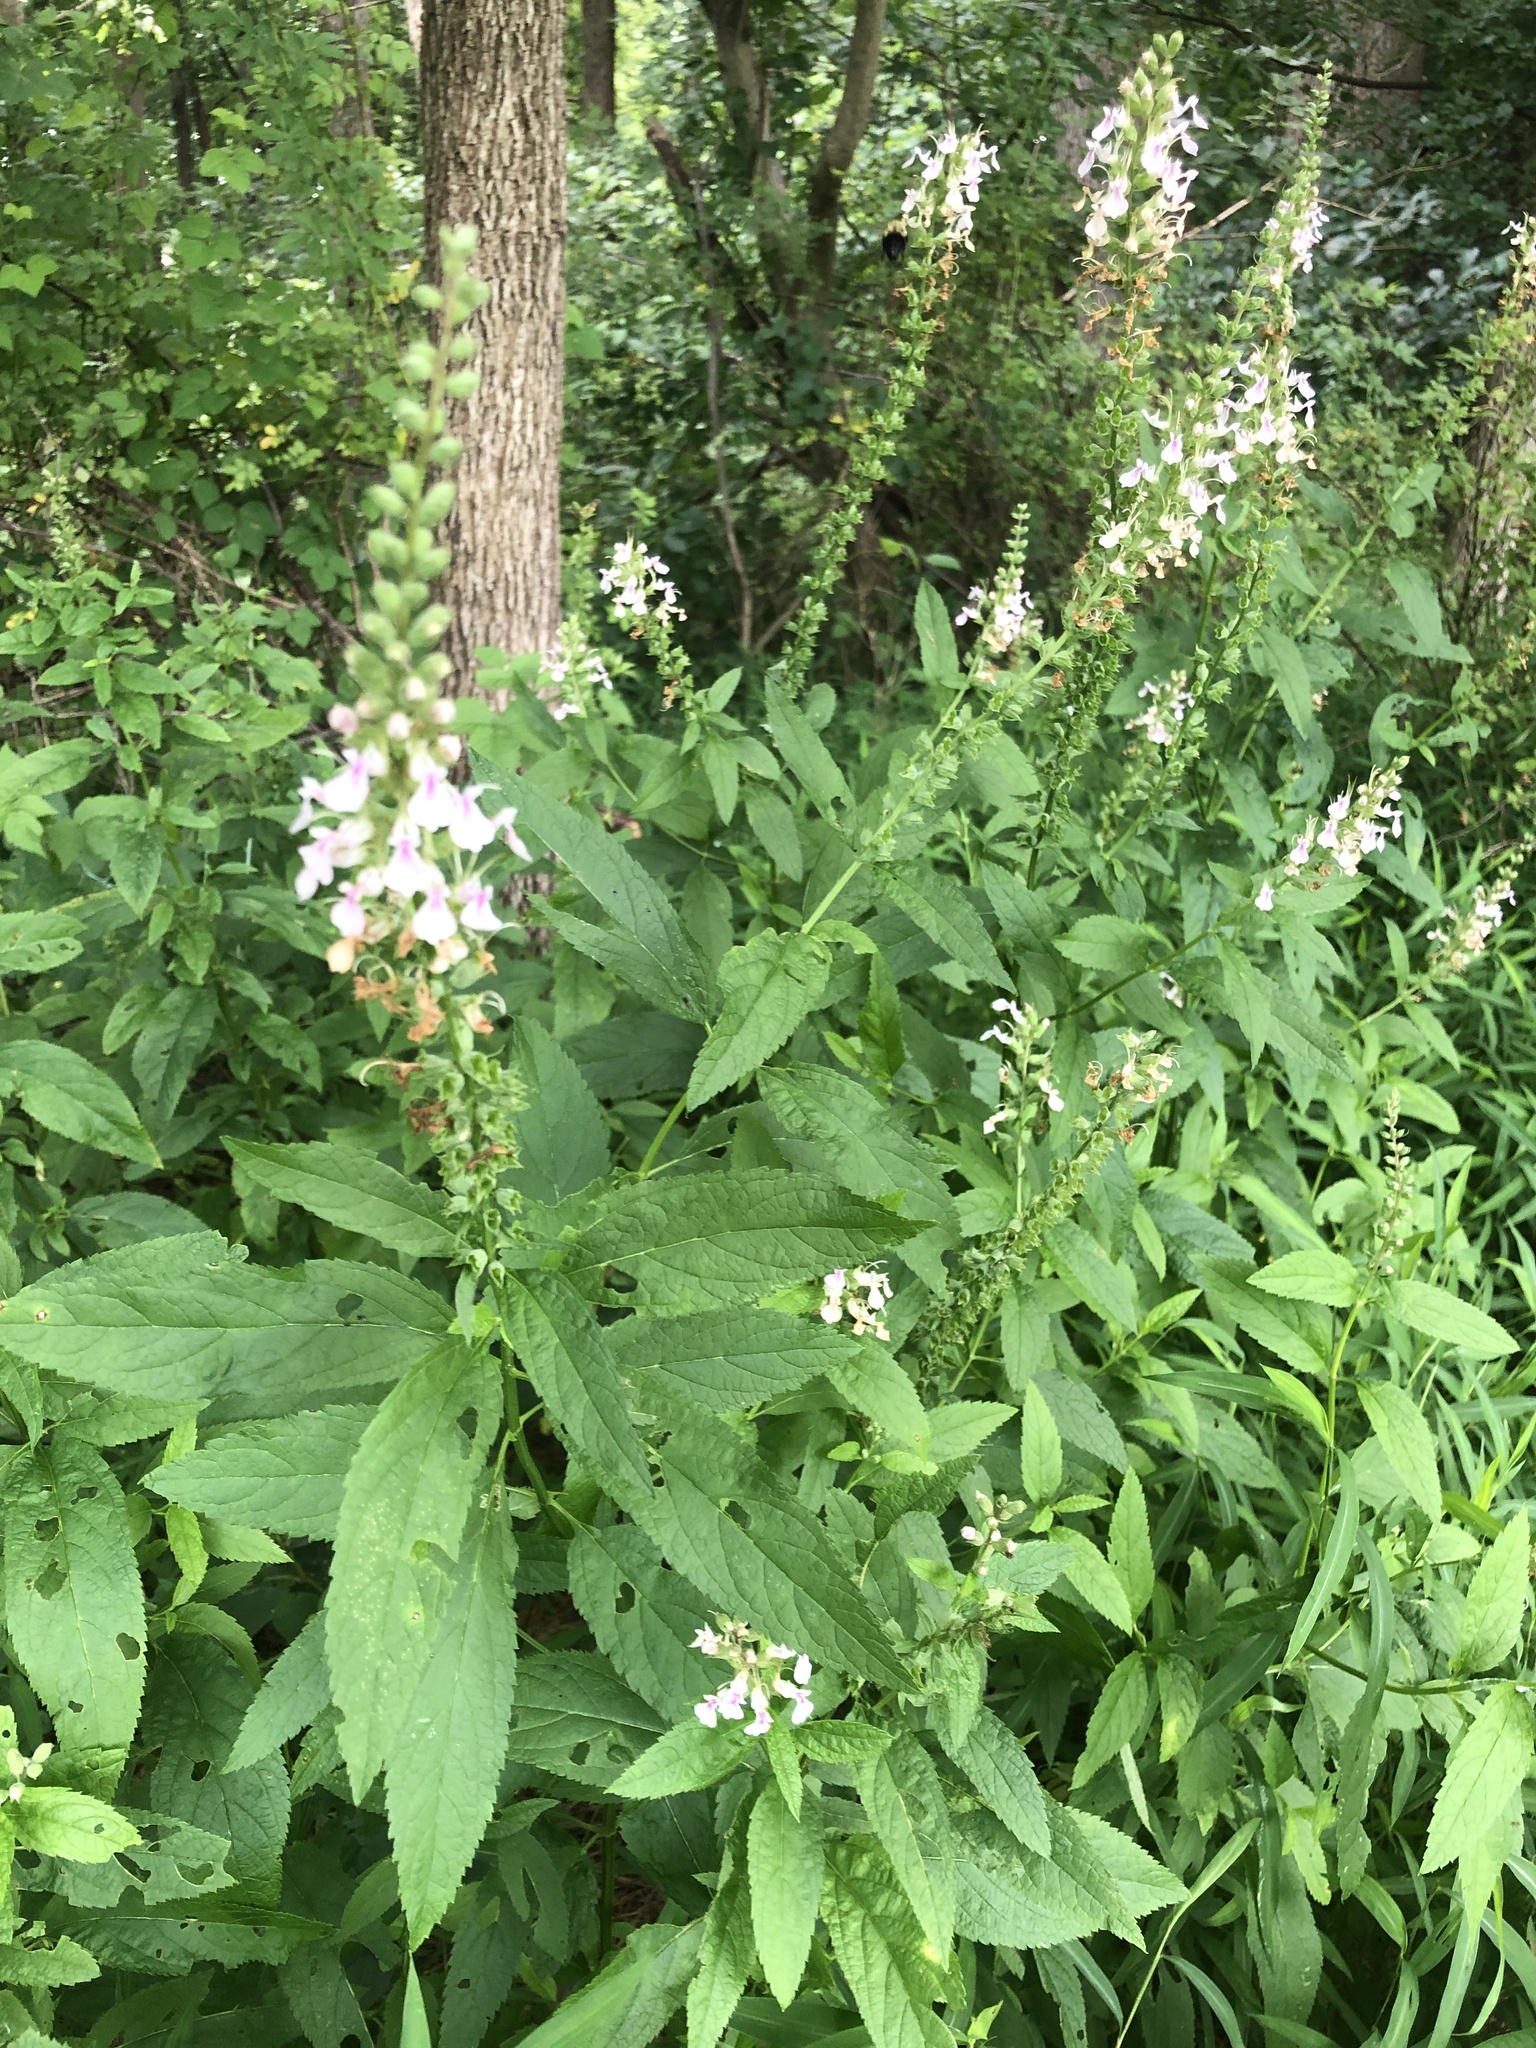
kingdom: Plantae
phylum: Tracheophyta
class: Magnoliopsida
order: Lamiales
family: Lamiaceae
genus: Teucrium
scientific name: Teucrium canadense
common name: American germander
